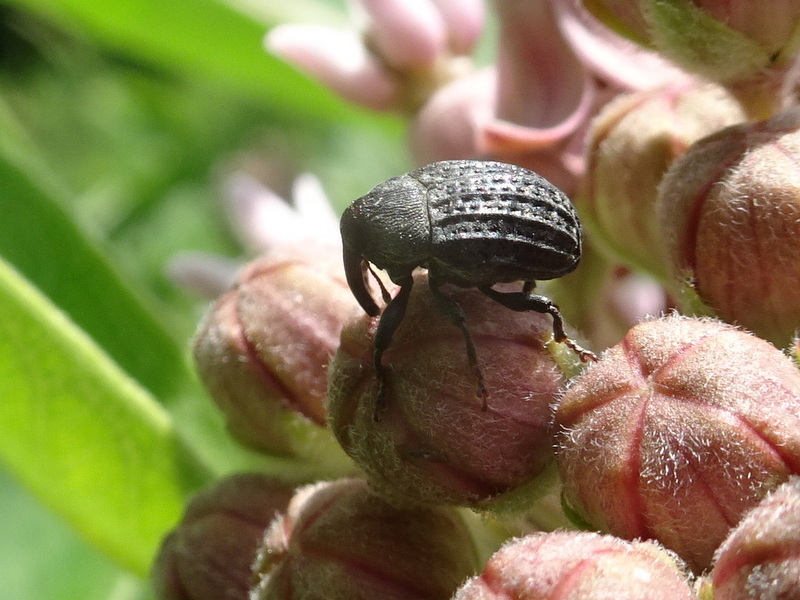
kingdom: Animalia
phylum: Arthropoda
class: Insecta
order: Coleoptera
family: Curculionidae
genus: Rhyssomatus
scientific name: Rhyssomatus lineaticollis
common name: Milkweed stem weevil
